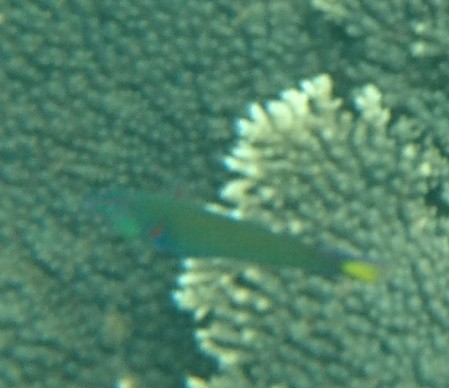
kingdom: Animalia
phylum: Chordata
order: Perciformes
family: Labridae
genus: Thalassoma
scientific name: Thalassoma lunare
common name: Blue wrasse
